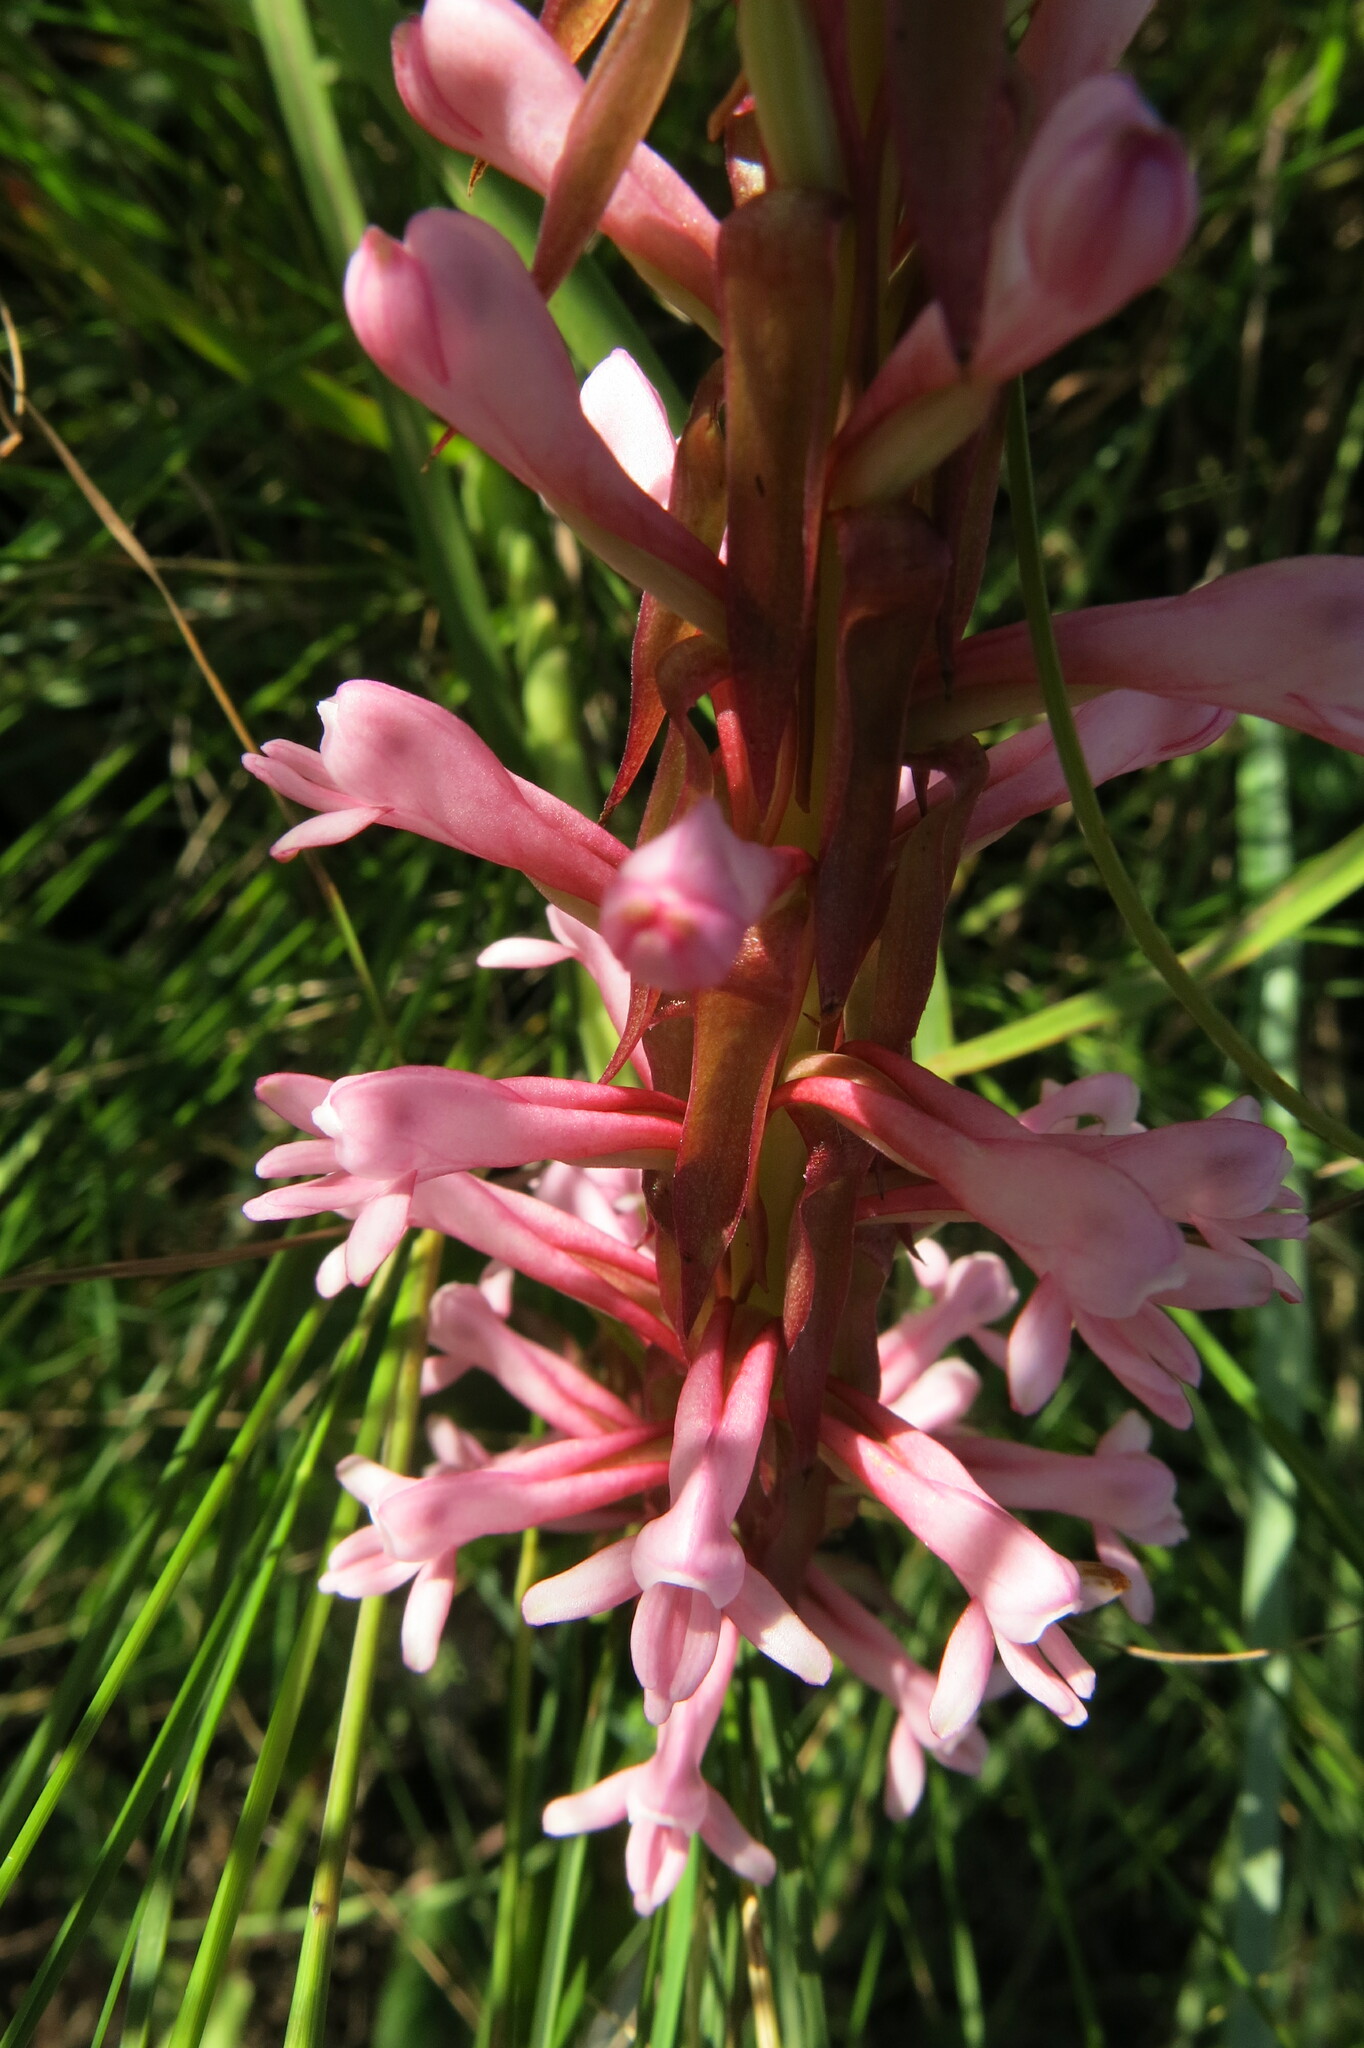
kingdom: Plantae
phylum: Tracheophyta
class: Liliopsida
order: Asparagales
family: Orchidaceae
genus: Satyrium
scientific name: Satyrium macrophyllum
